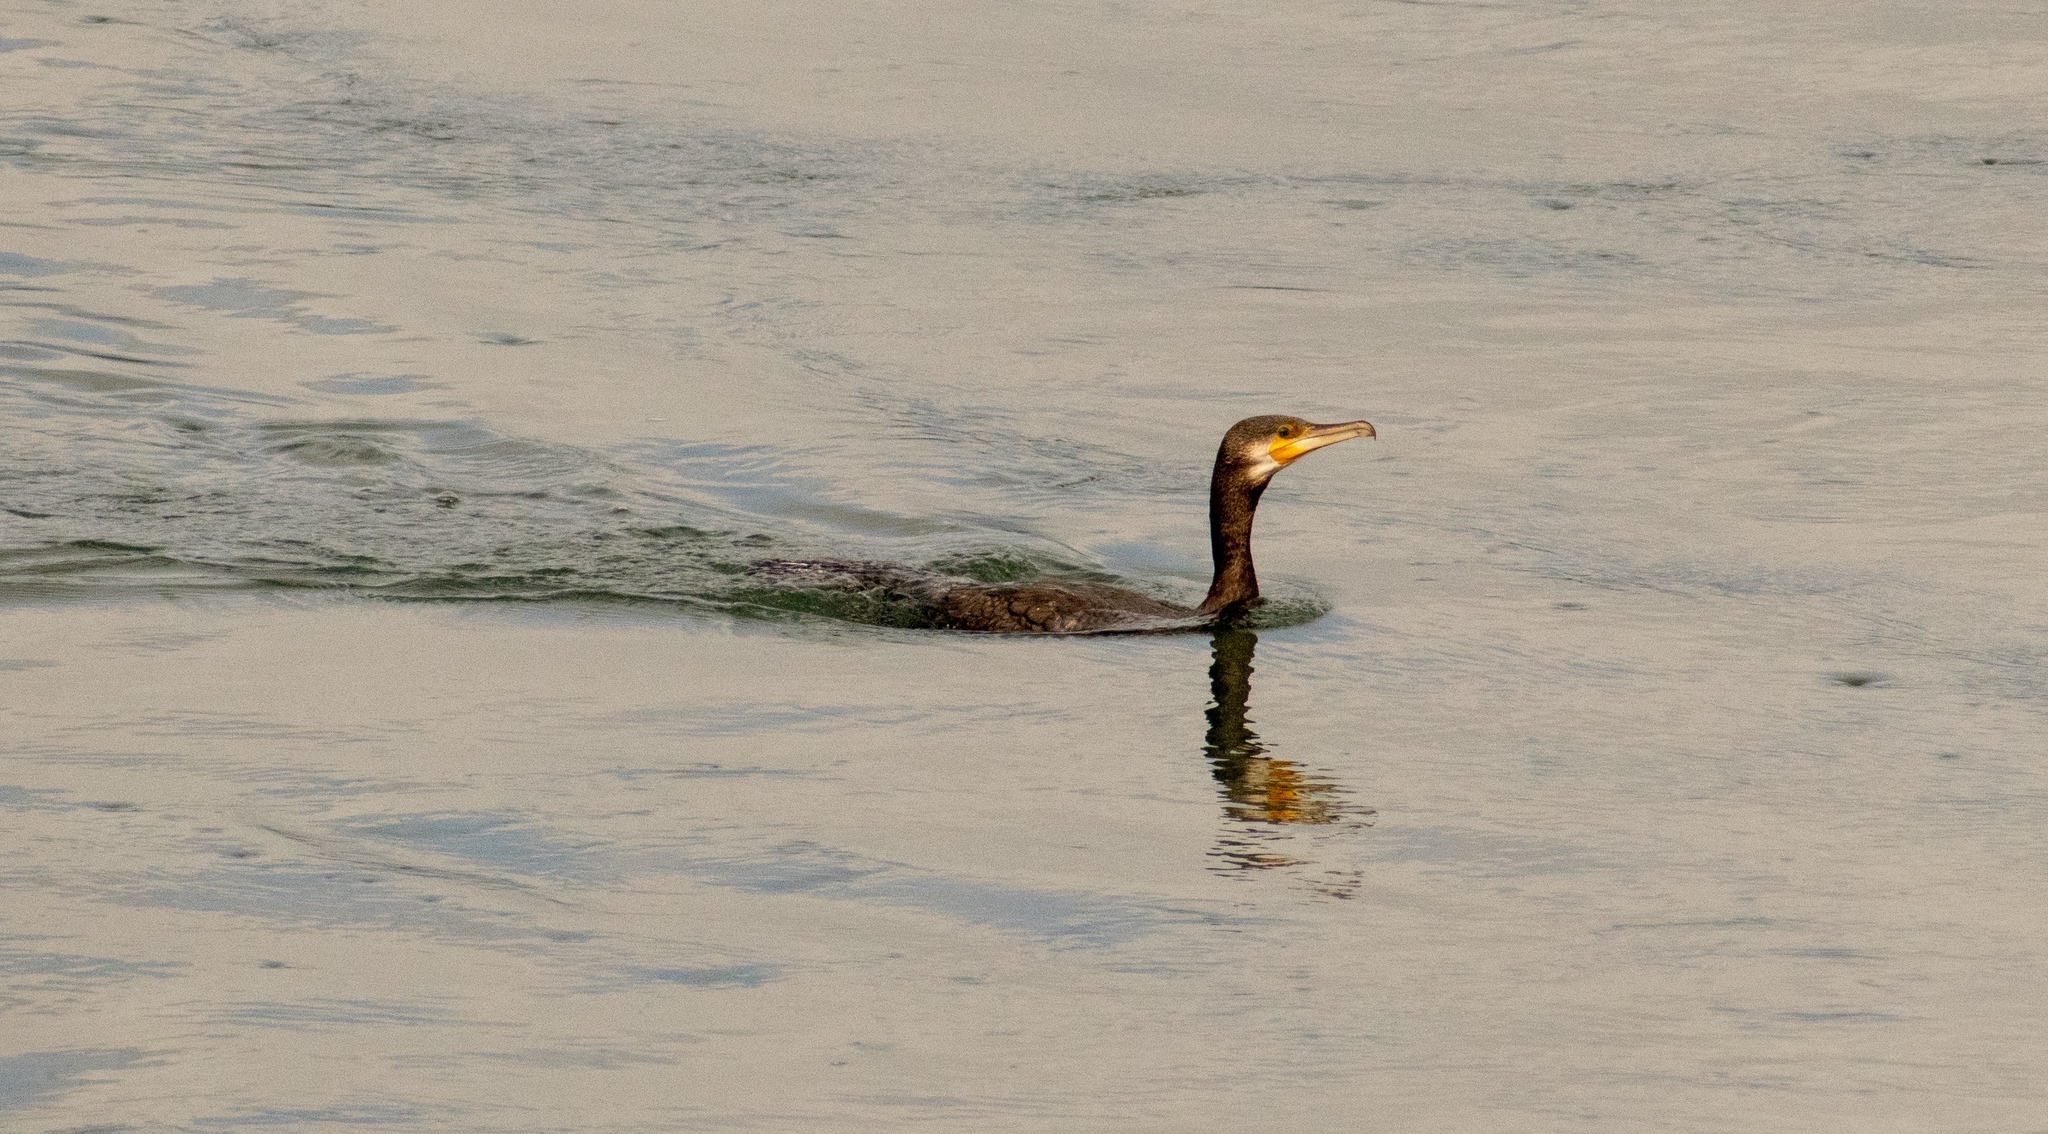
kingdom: Animalia
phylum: Chordata
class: Aves
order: Suliformes
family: Phalacrocoracidae
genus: Phalacrocorax
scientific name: Phalacrocorax carbo
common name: Great cormorant
